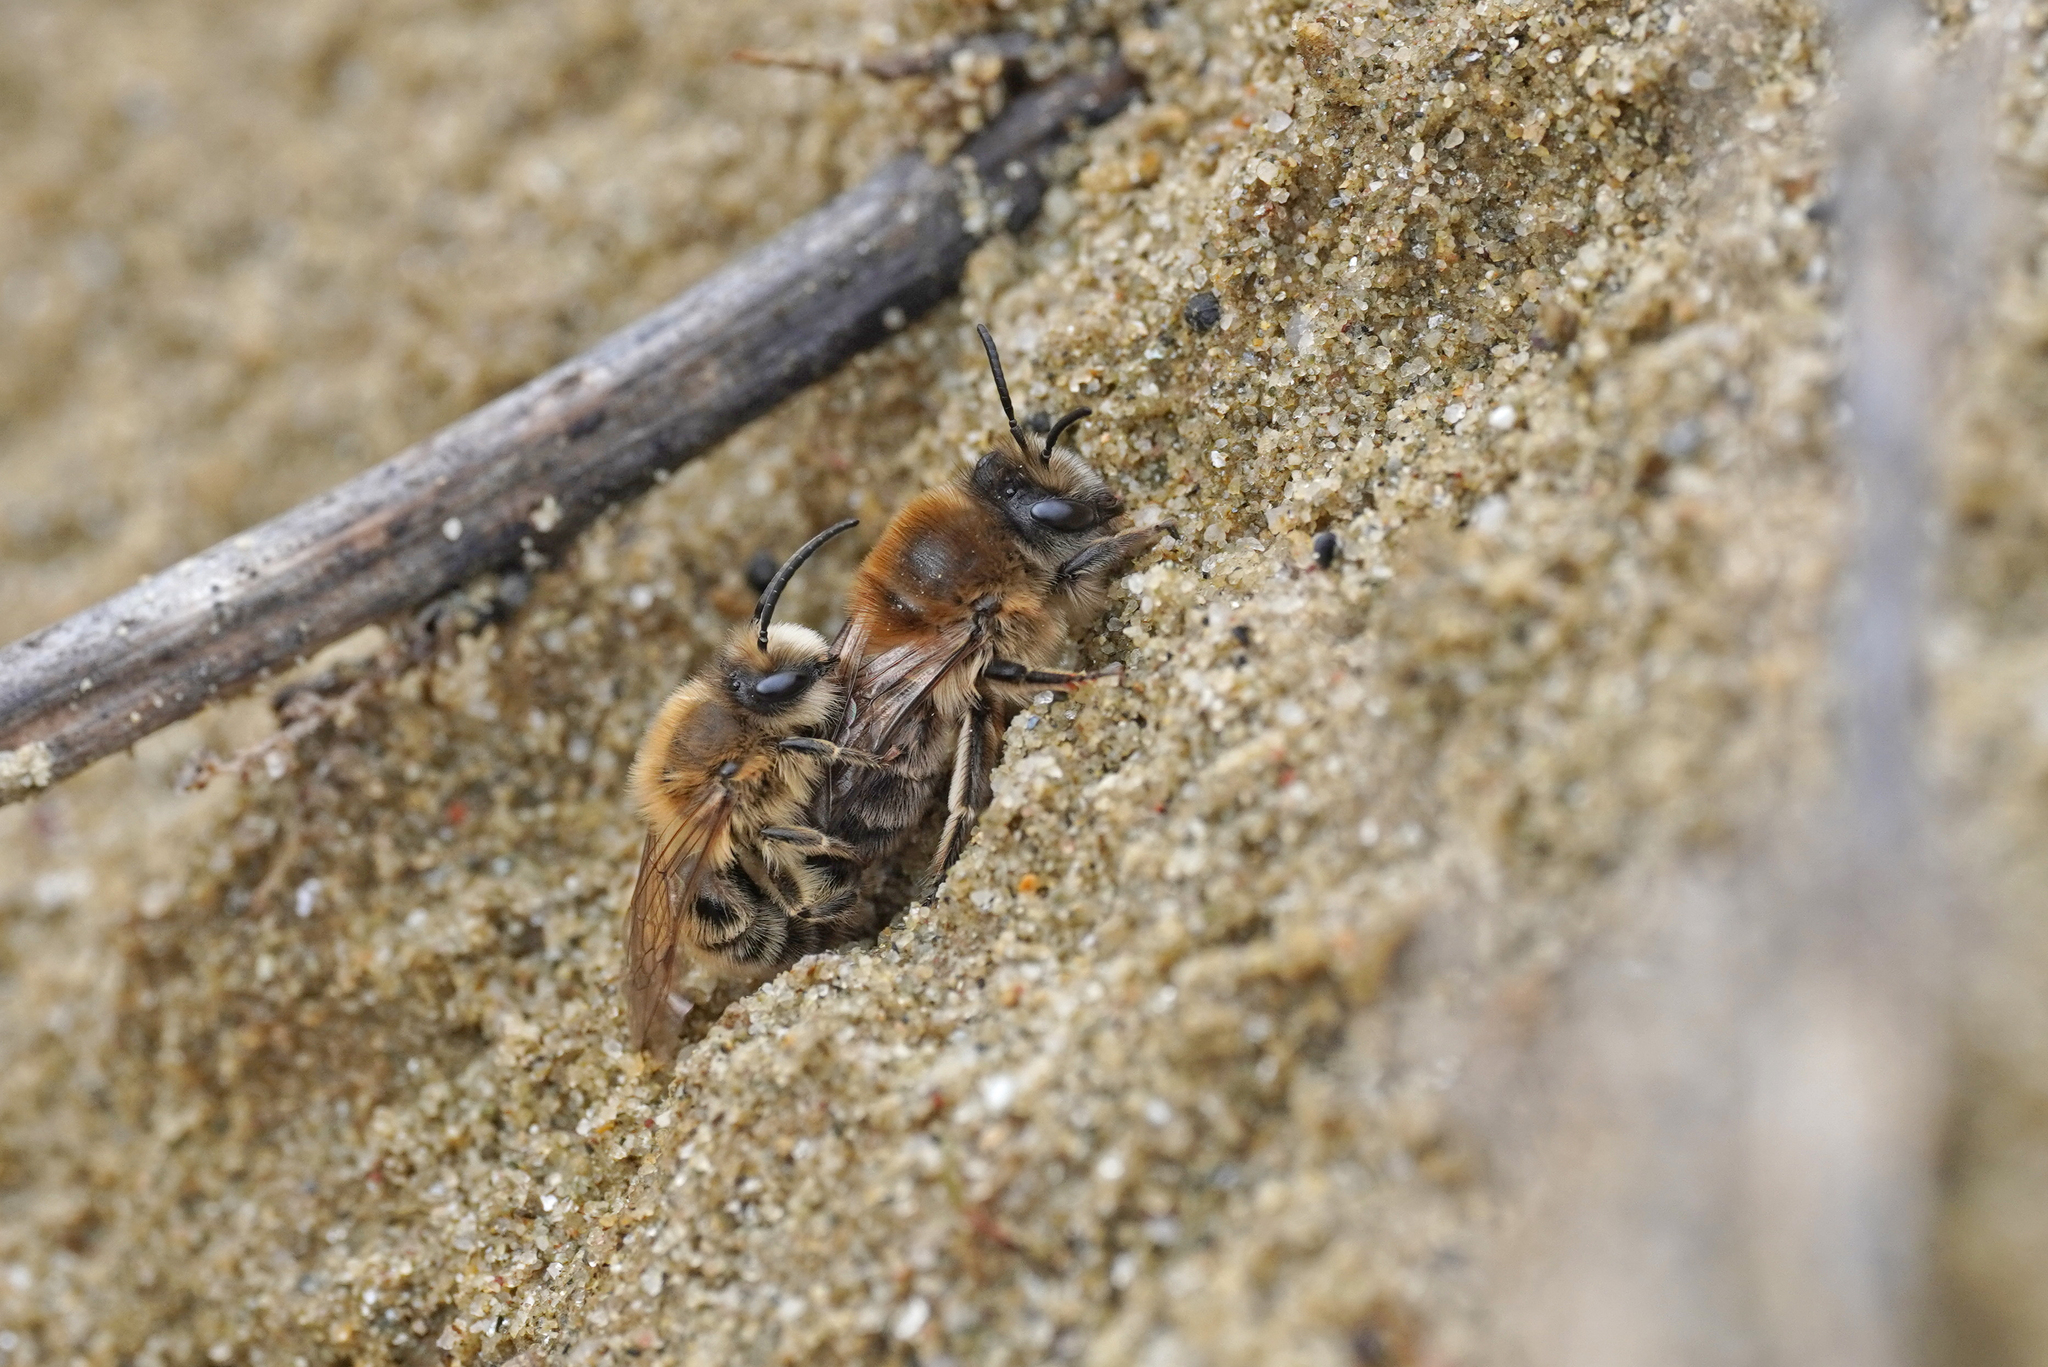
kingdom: Animalia
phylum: Arthropoda
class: Insecta
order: Hymenoptera
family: Colletidae
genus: Colletes
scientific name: Colletes cunicularius
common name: Early colletes
